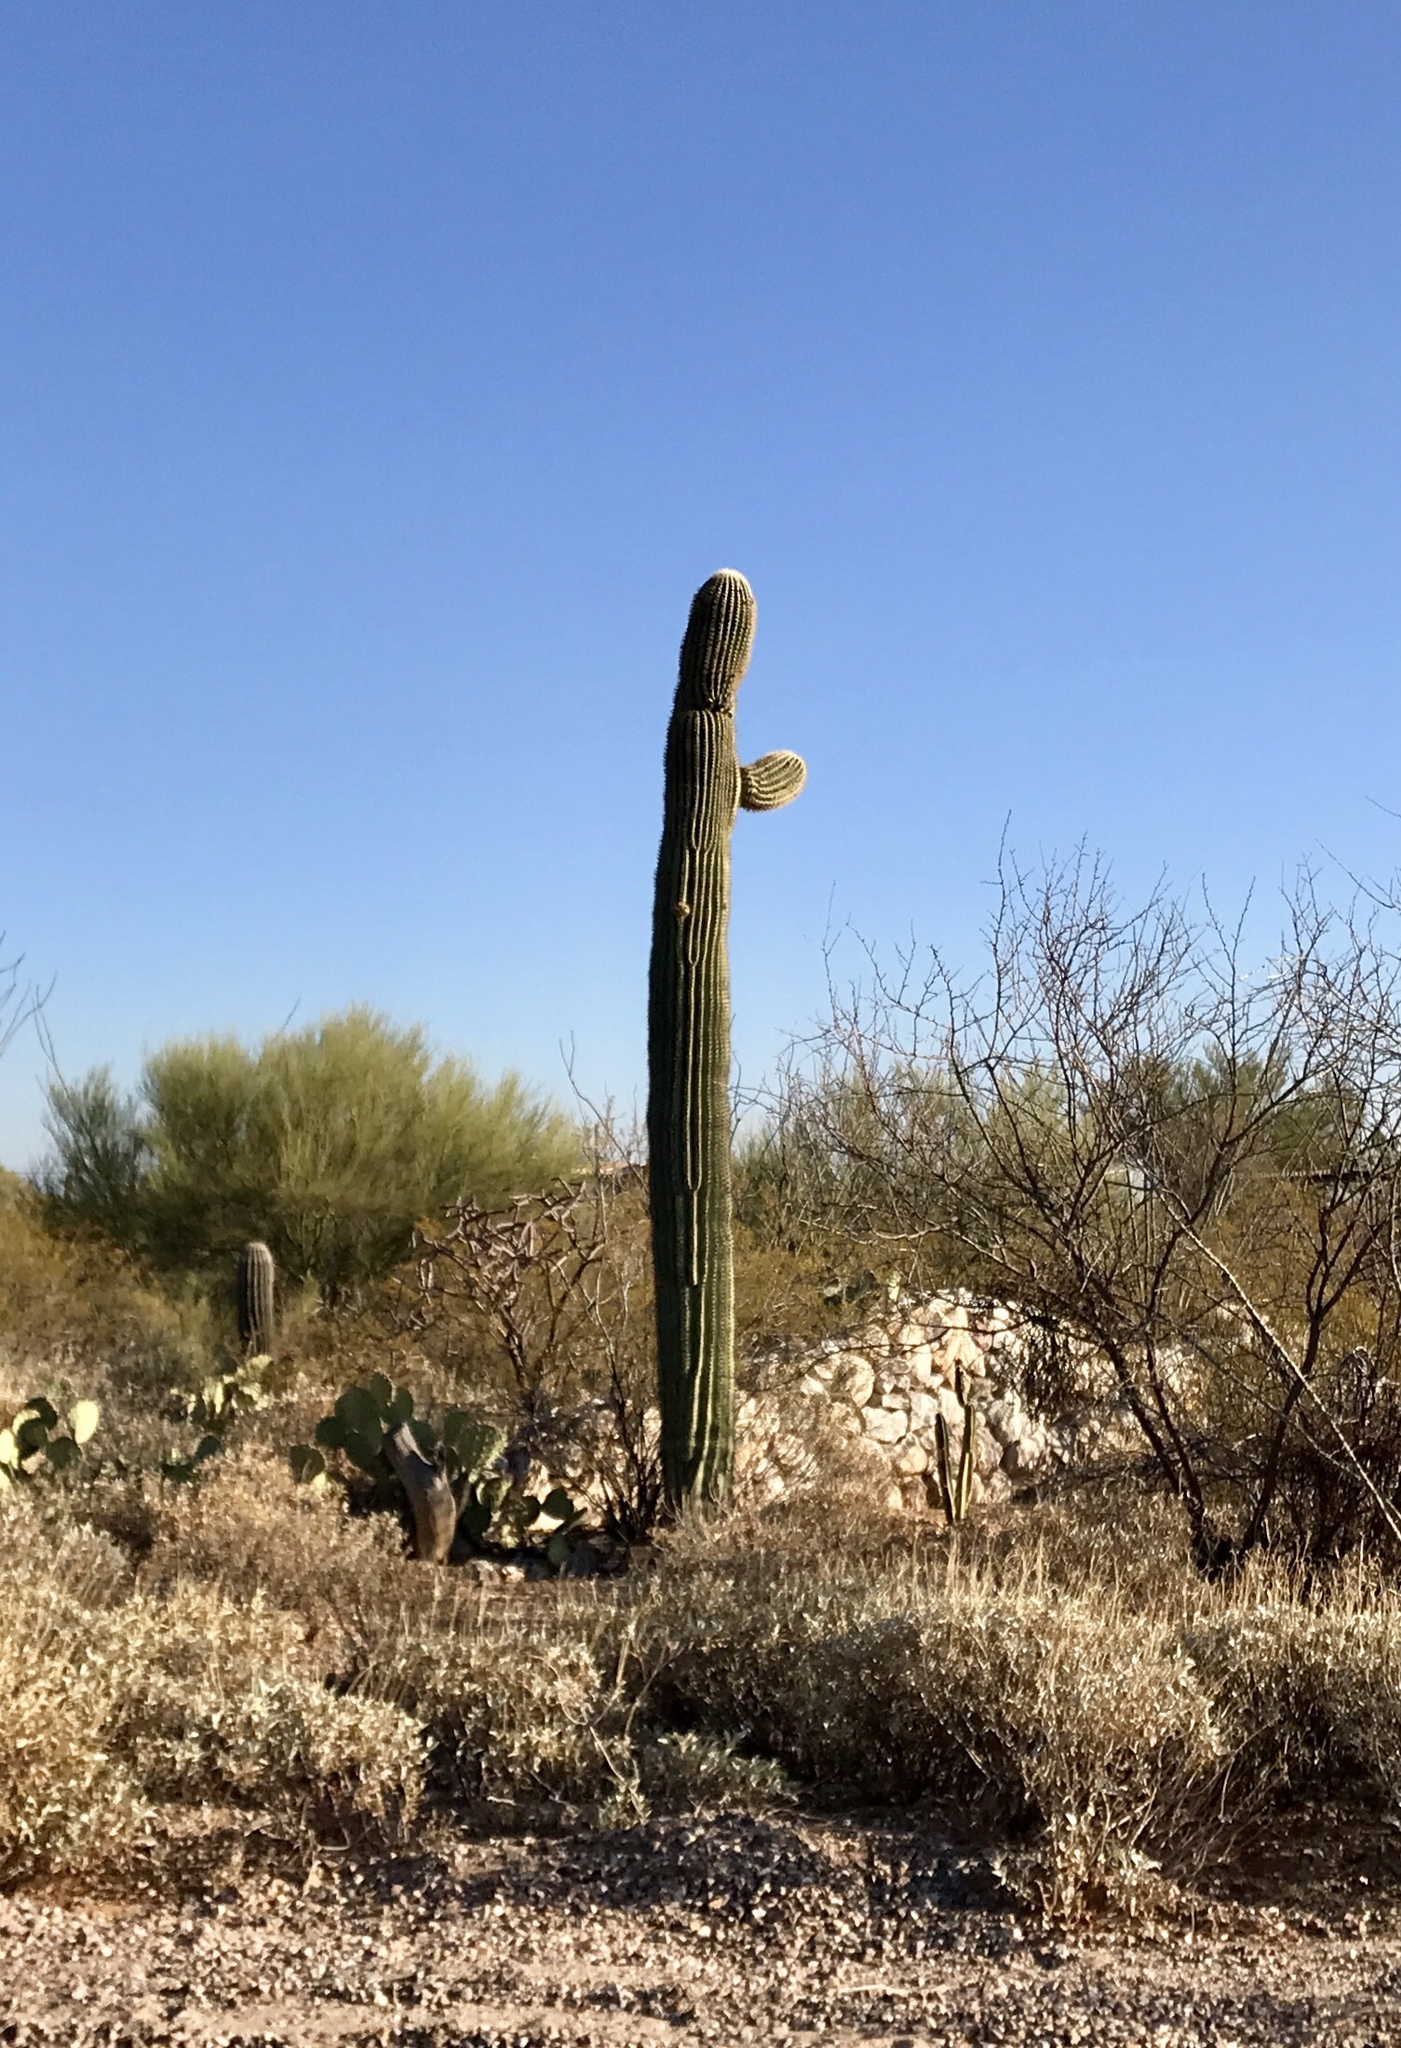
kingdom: Plantae
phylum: Tracheophyta
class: Magnoliopsida
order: Caryophyllales
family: Cactaceae
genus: Carnegiea
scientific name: Carnegiea gigantea
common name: Saguaro
